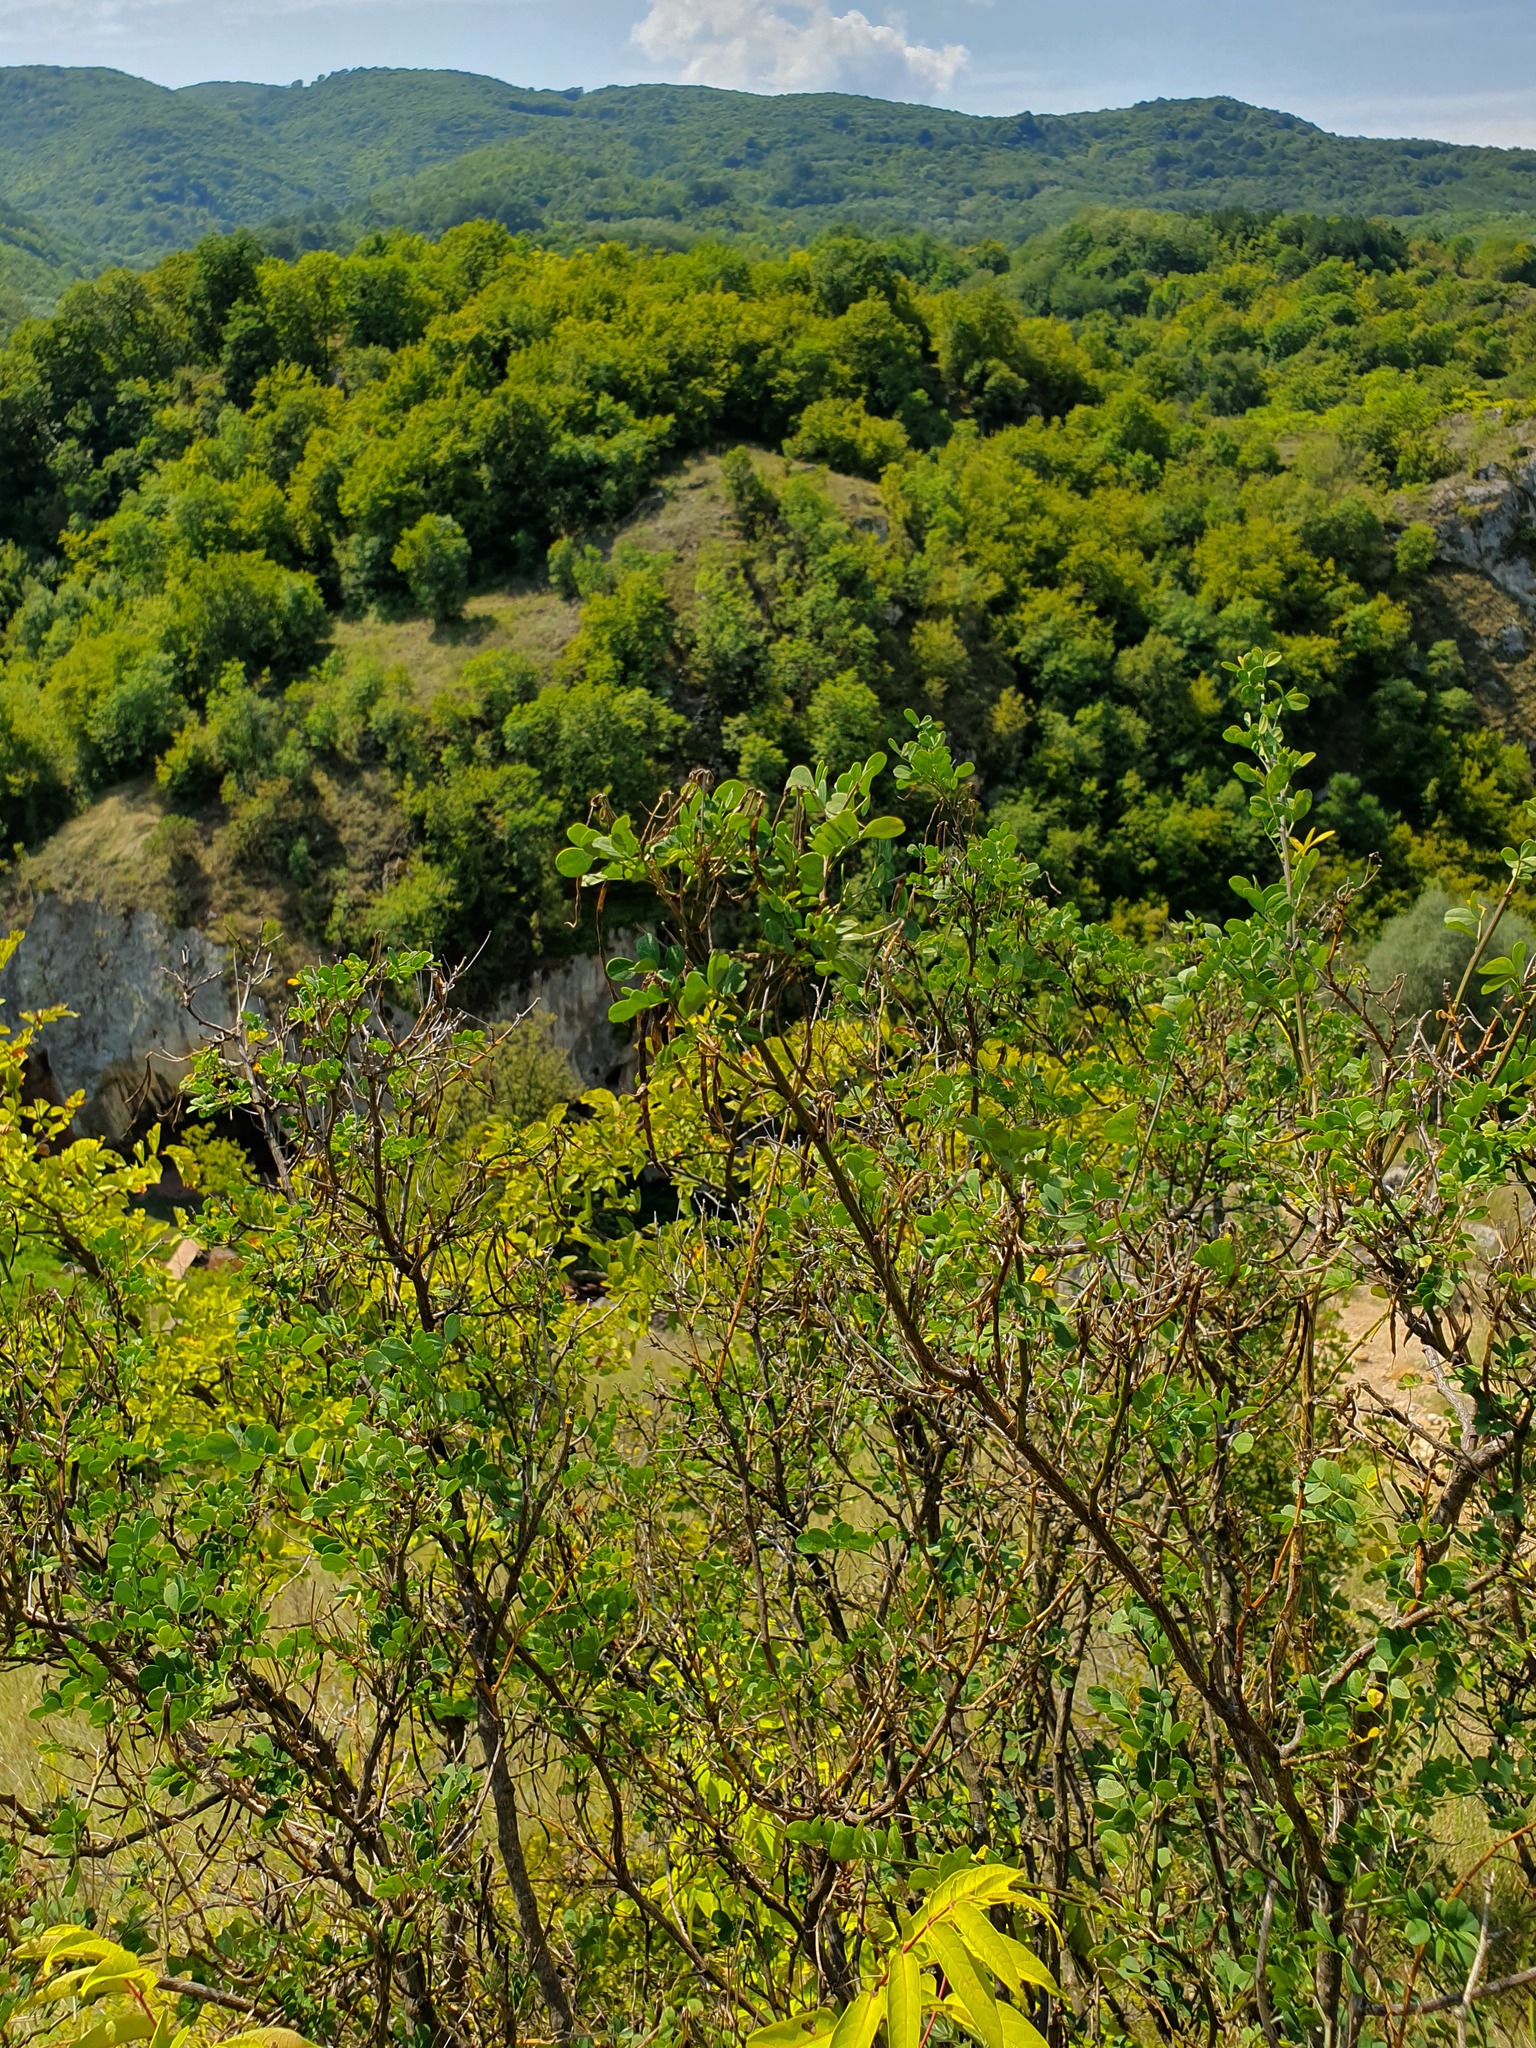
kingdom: Plantae
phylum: Tracheophyta
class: Magnoliopsida
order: Fabales
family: Fabaceae
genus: Hippocrepis
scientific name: Hippocrepis emerus
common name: Scorpion senna
